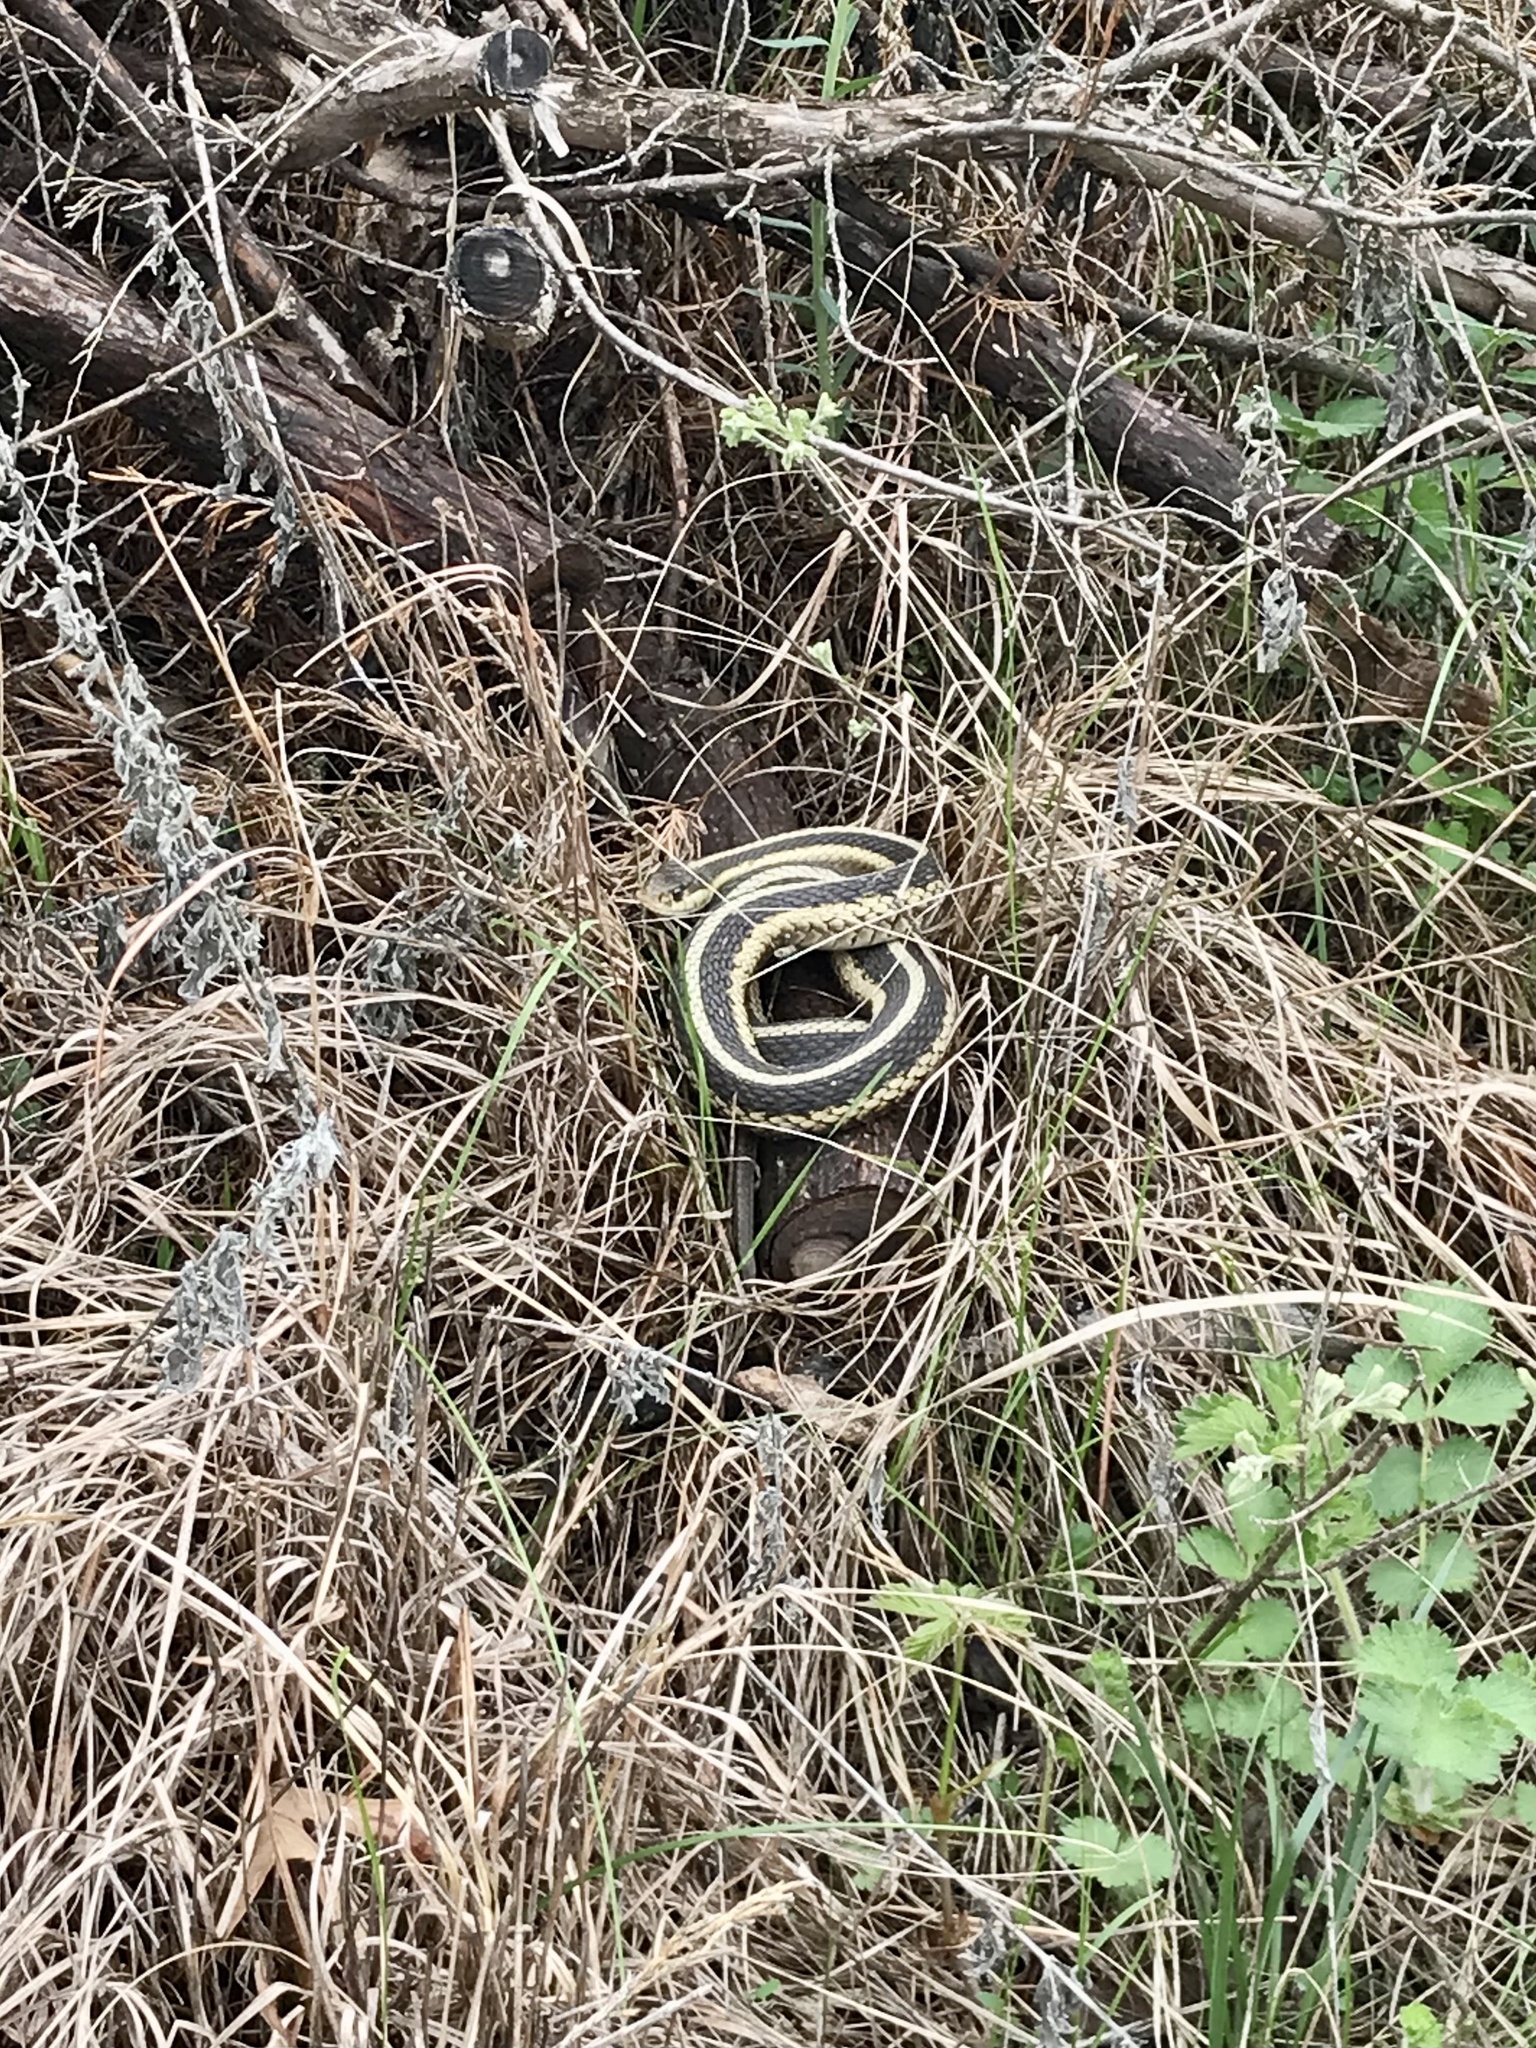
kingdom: Animalia
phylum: Chordata
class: Squamata
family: Colubridae
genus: Thamnophis
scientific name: Thamnophis sirtalis
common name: Common garter snake
